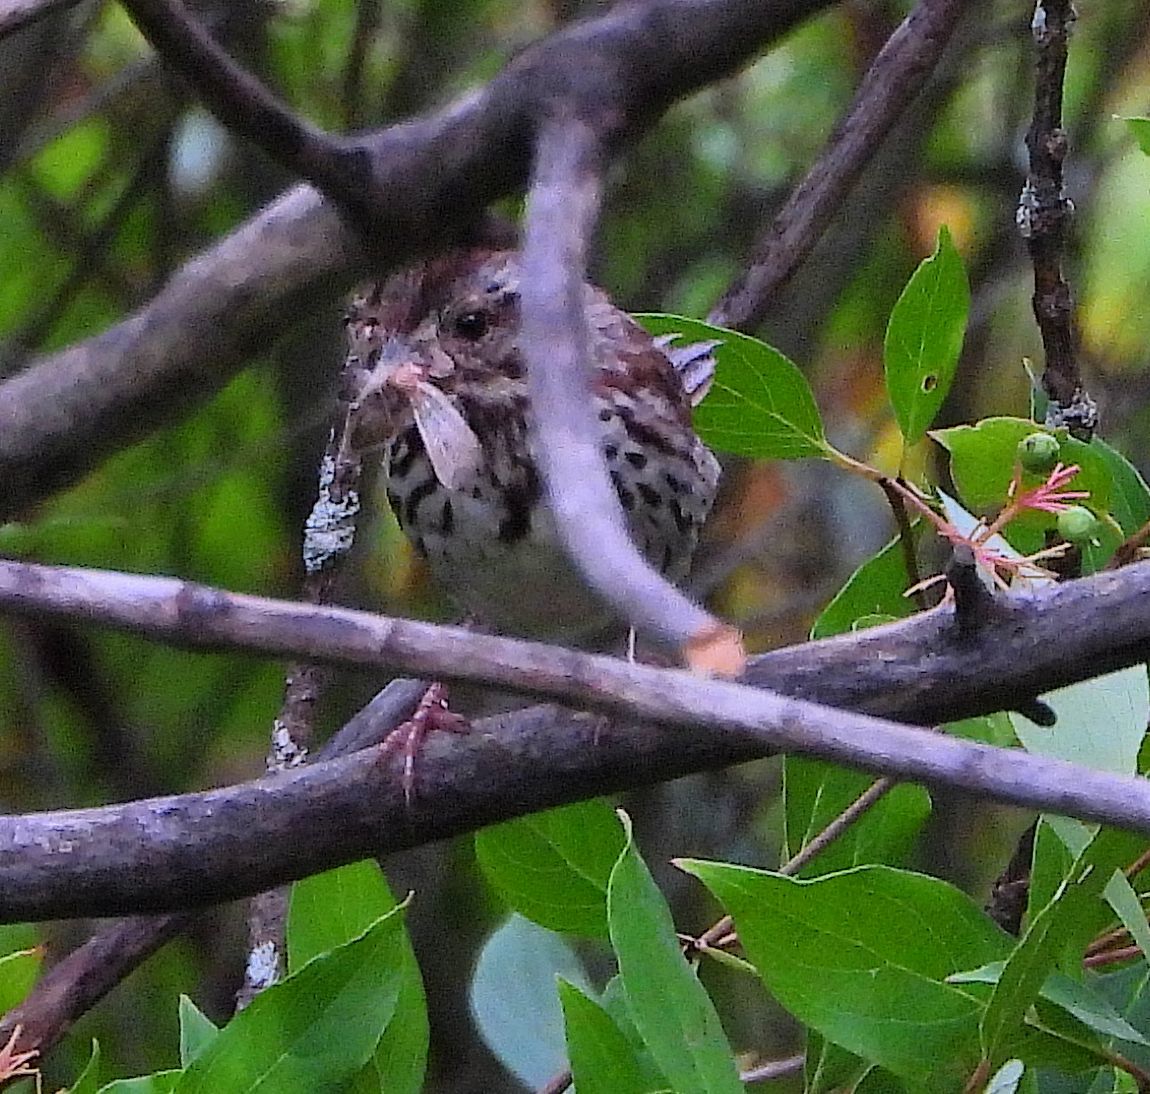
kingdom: Animalia
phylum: Chordata
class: Aves
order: Passeriformes
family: Passerellidae
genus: Melospiza
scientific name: Melospiza melodia
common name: Song sparrow
